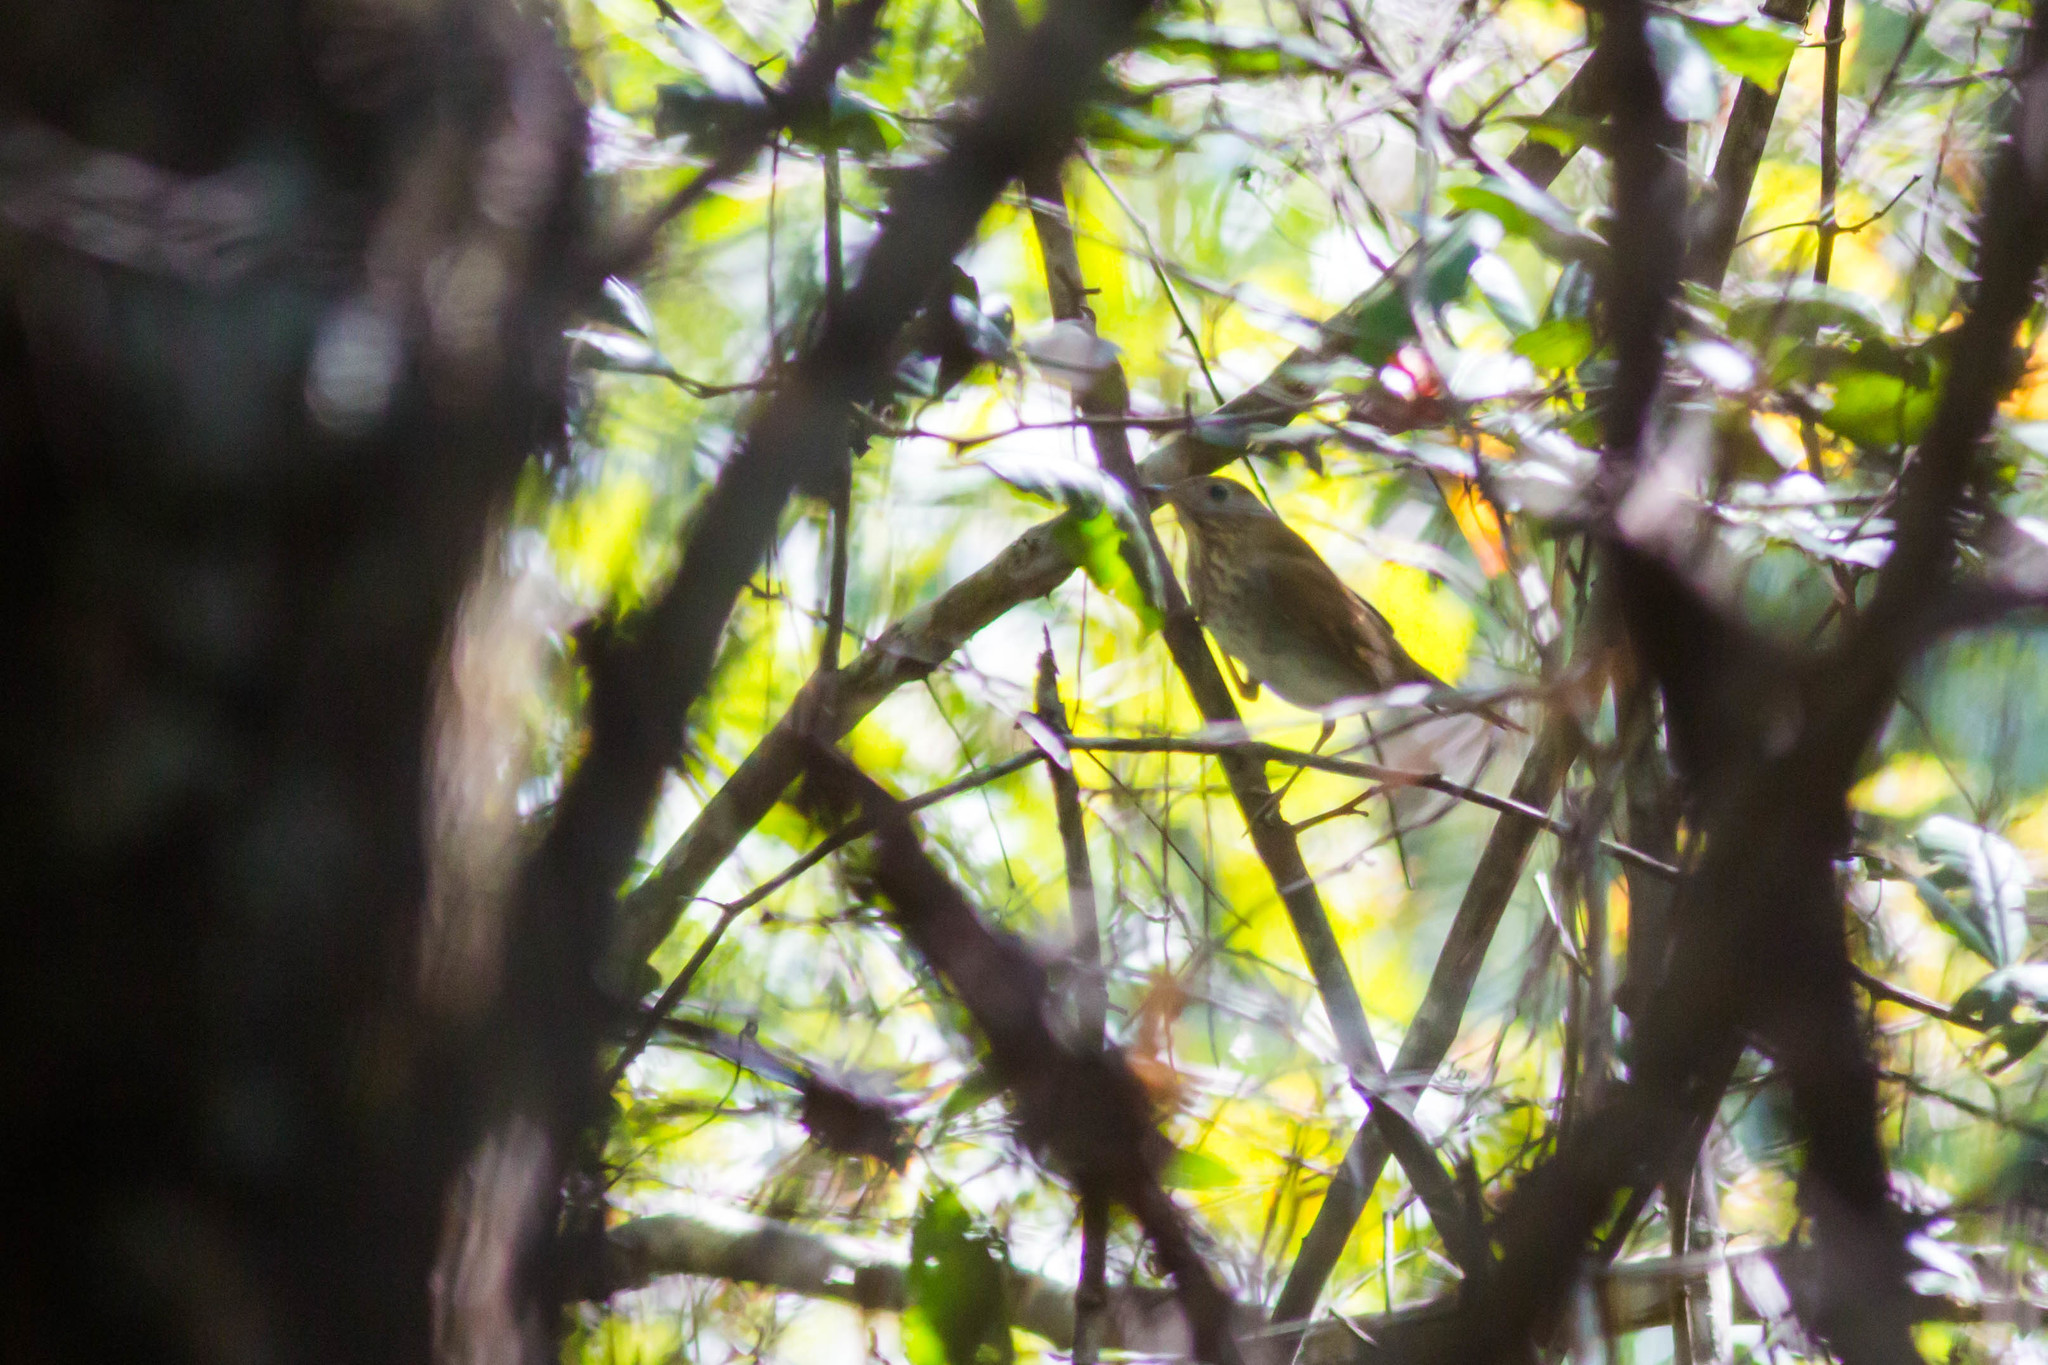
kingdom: Animalia
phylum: Chordata
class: Aves
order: Passeriformes
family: Turdidae
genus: Catharus
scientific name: Catharus fuscescens
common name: Veery
